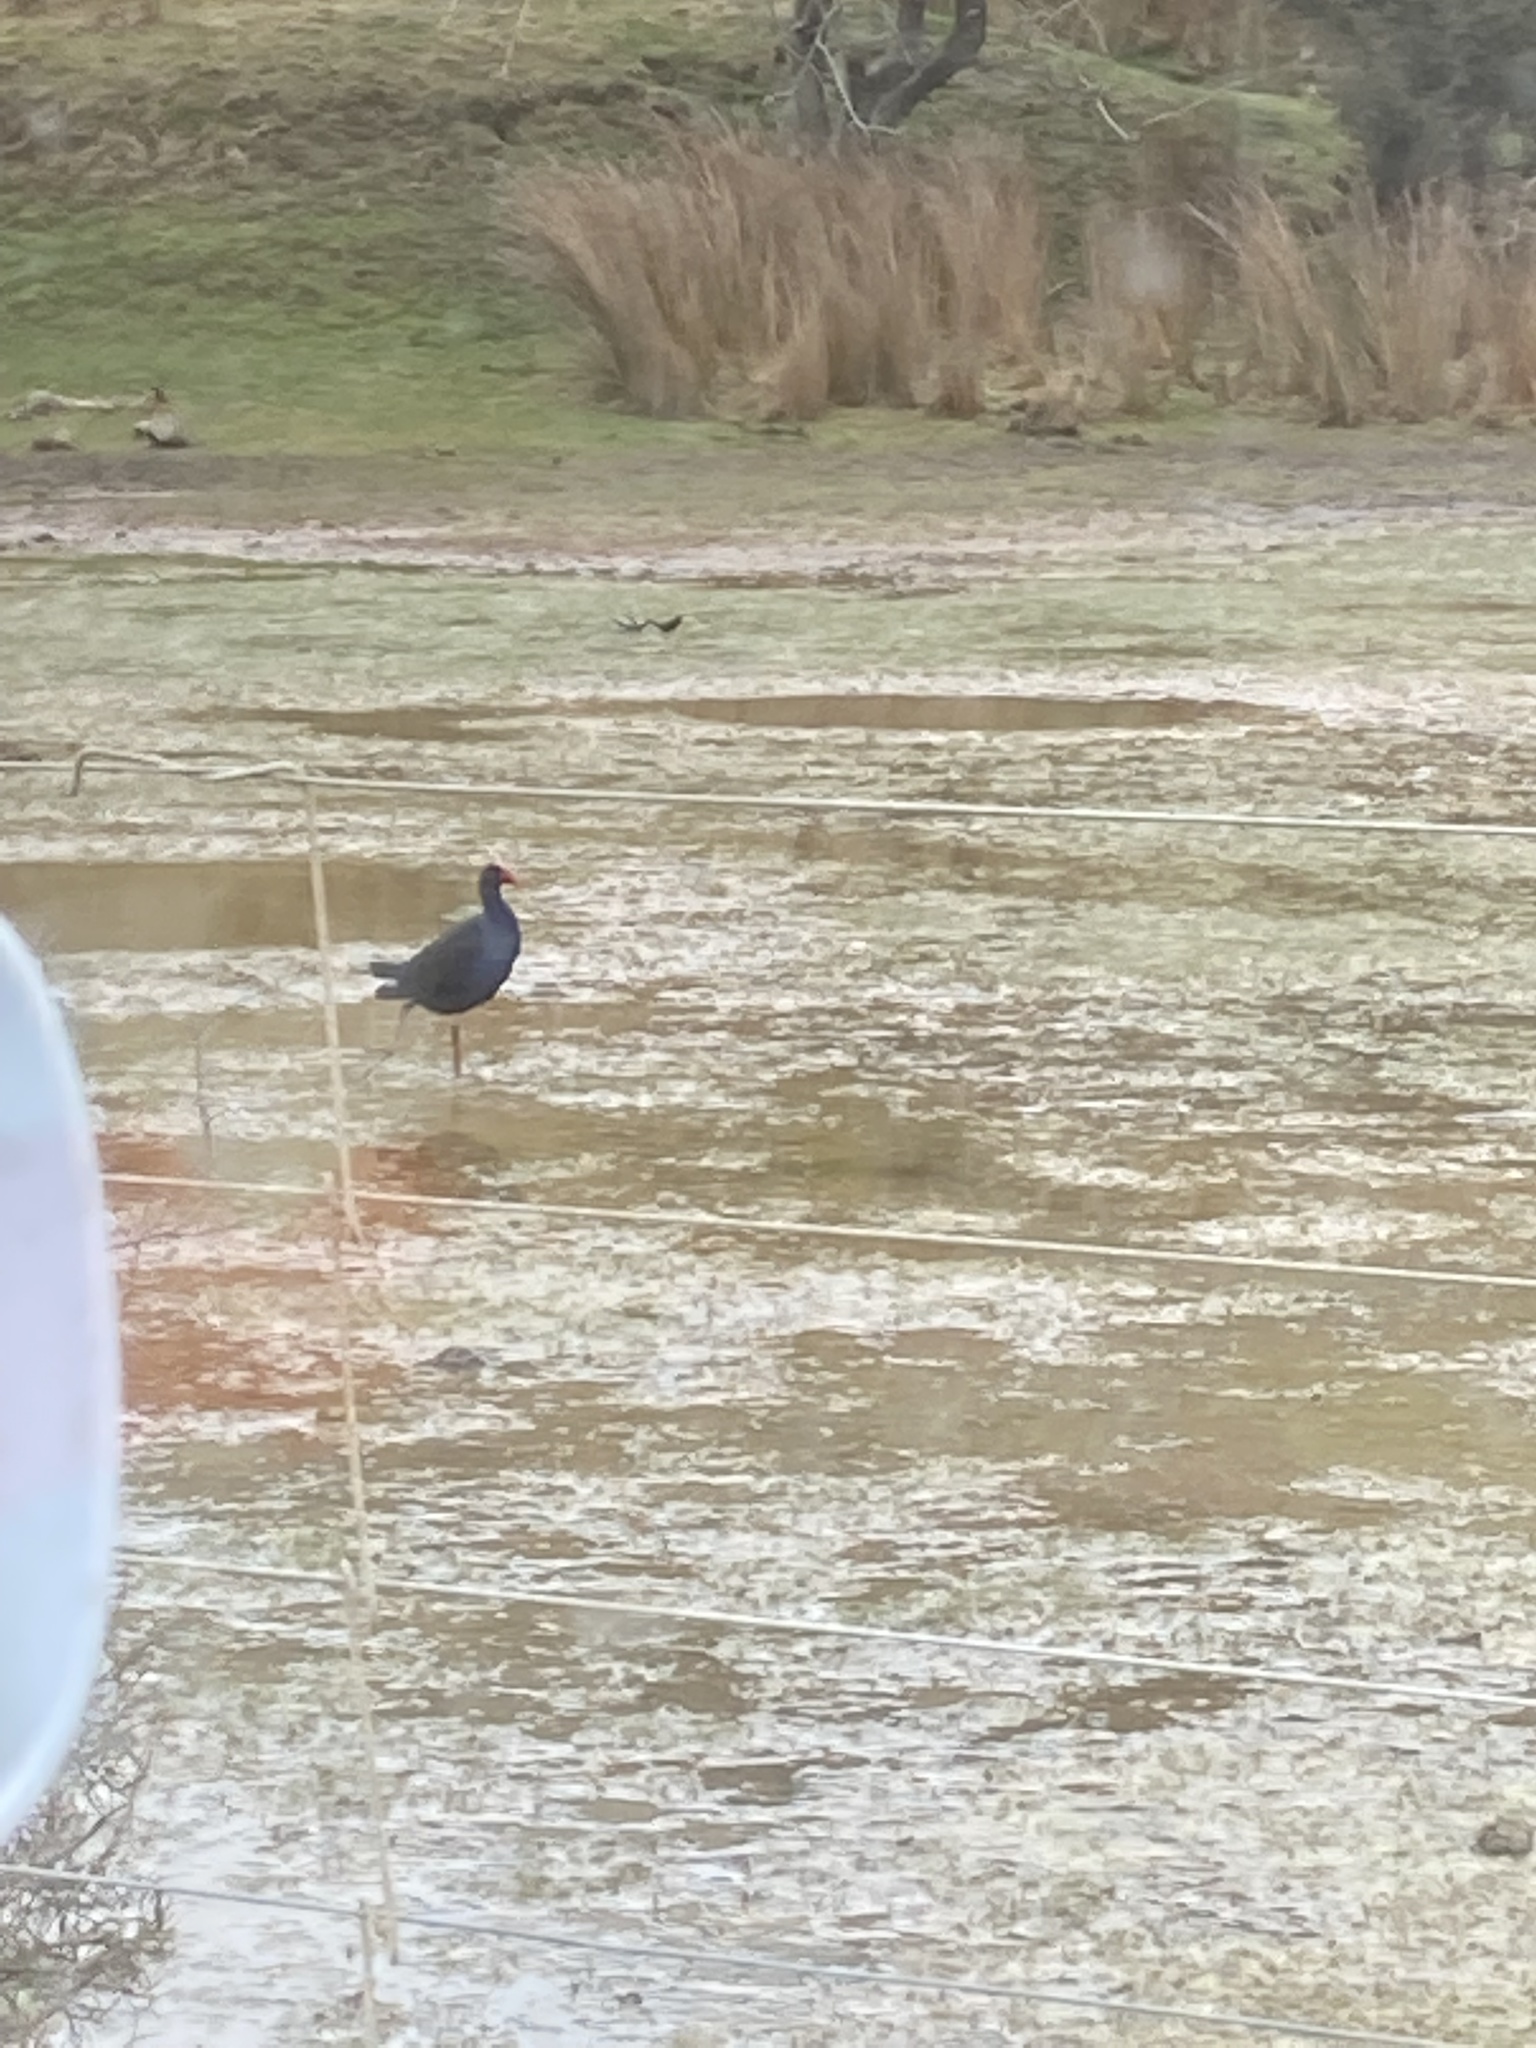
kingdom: Animalia
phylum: Chordata
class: Aves
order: Gruiformes
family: Rallidae
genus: Porphyrio
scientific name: Porphyrio melanotus
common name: Australasian swamphen
